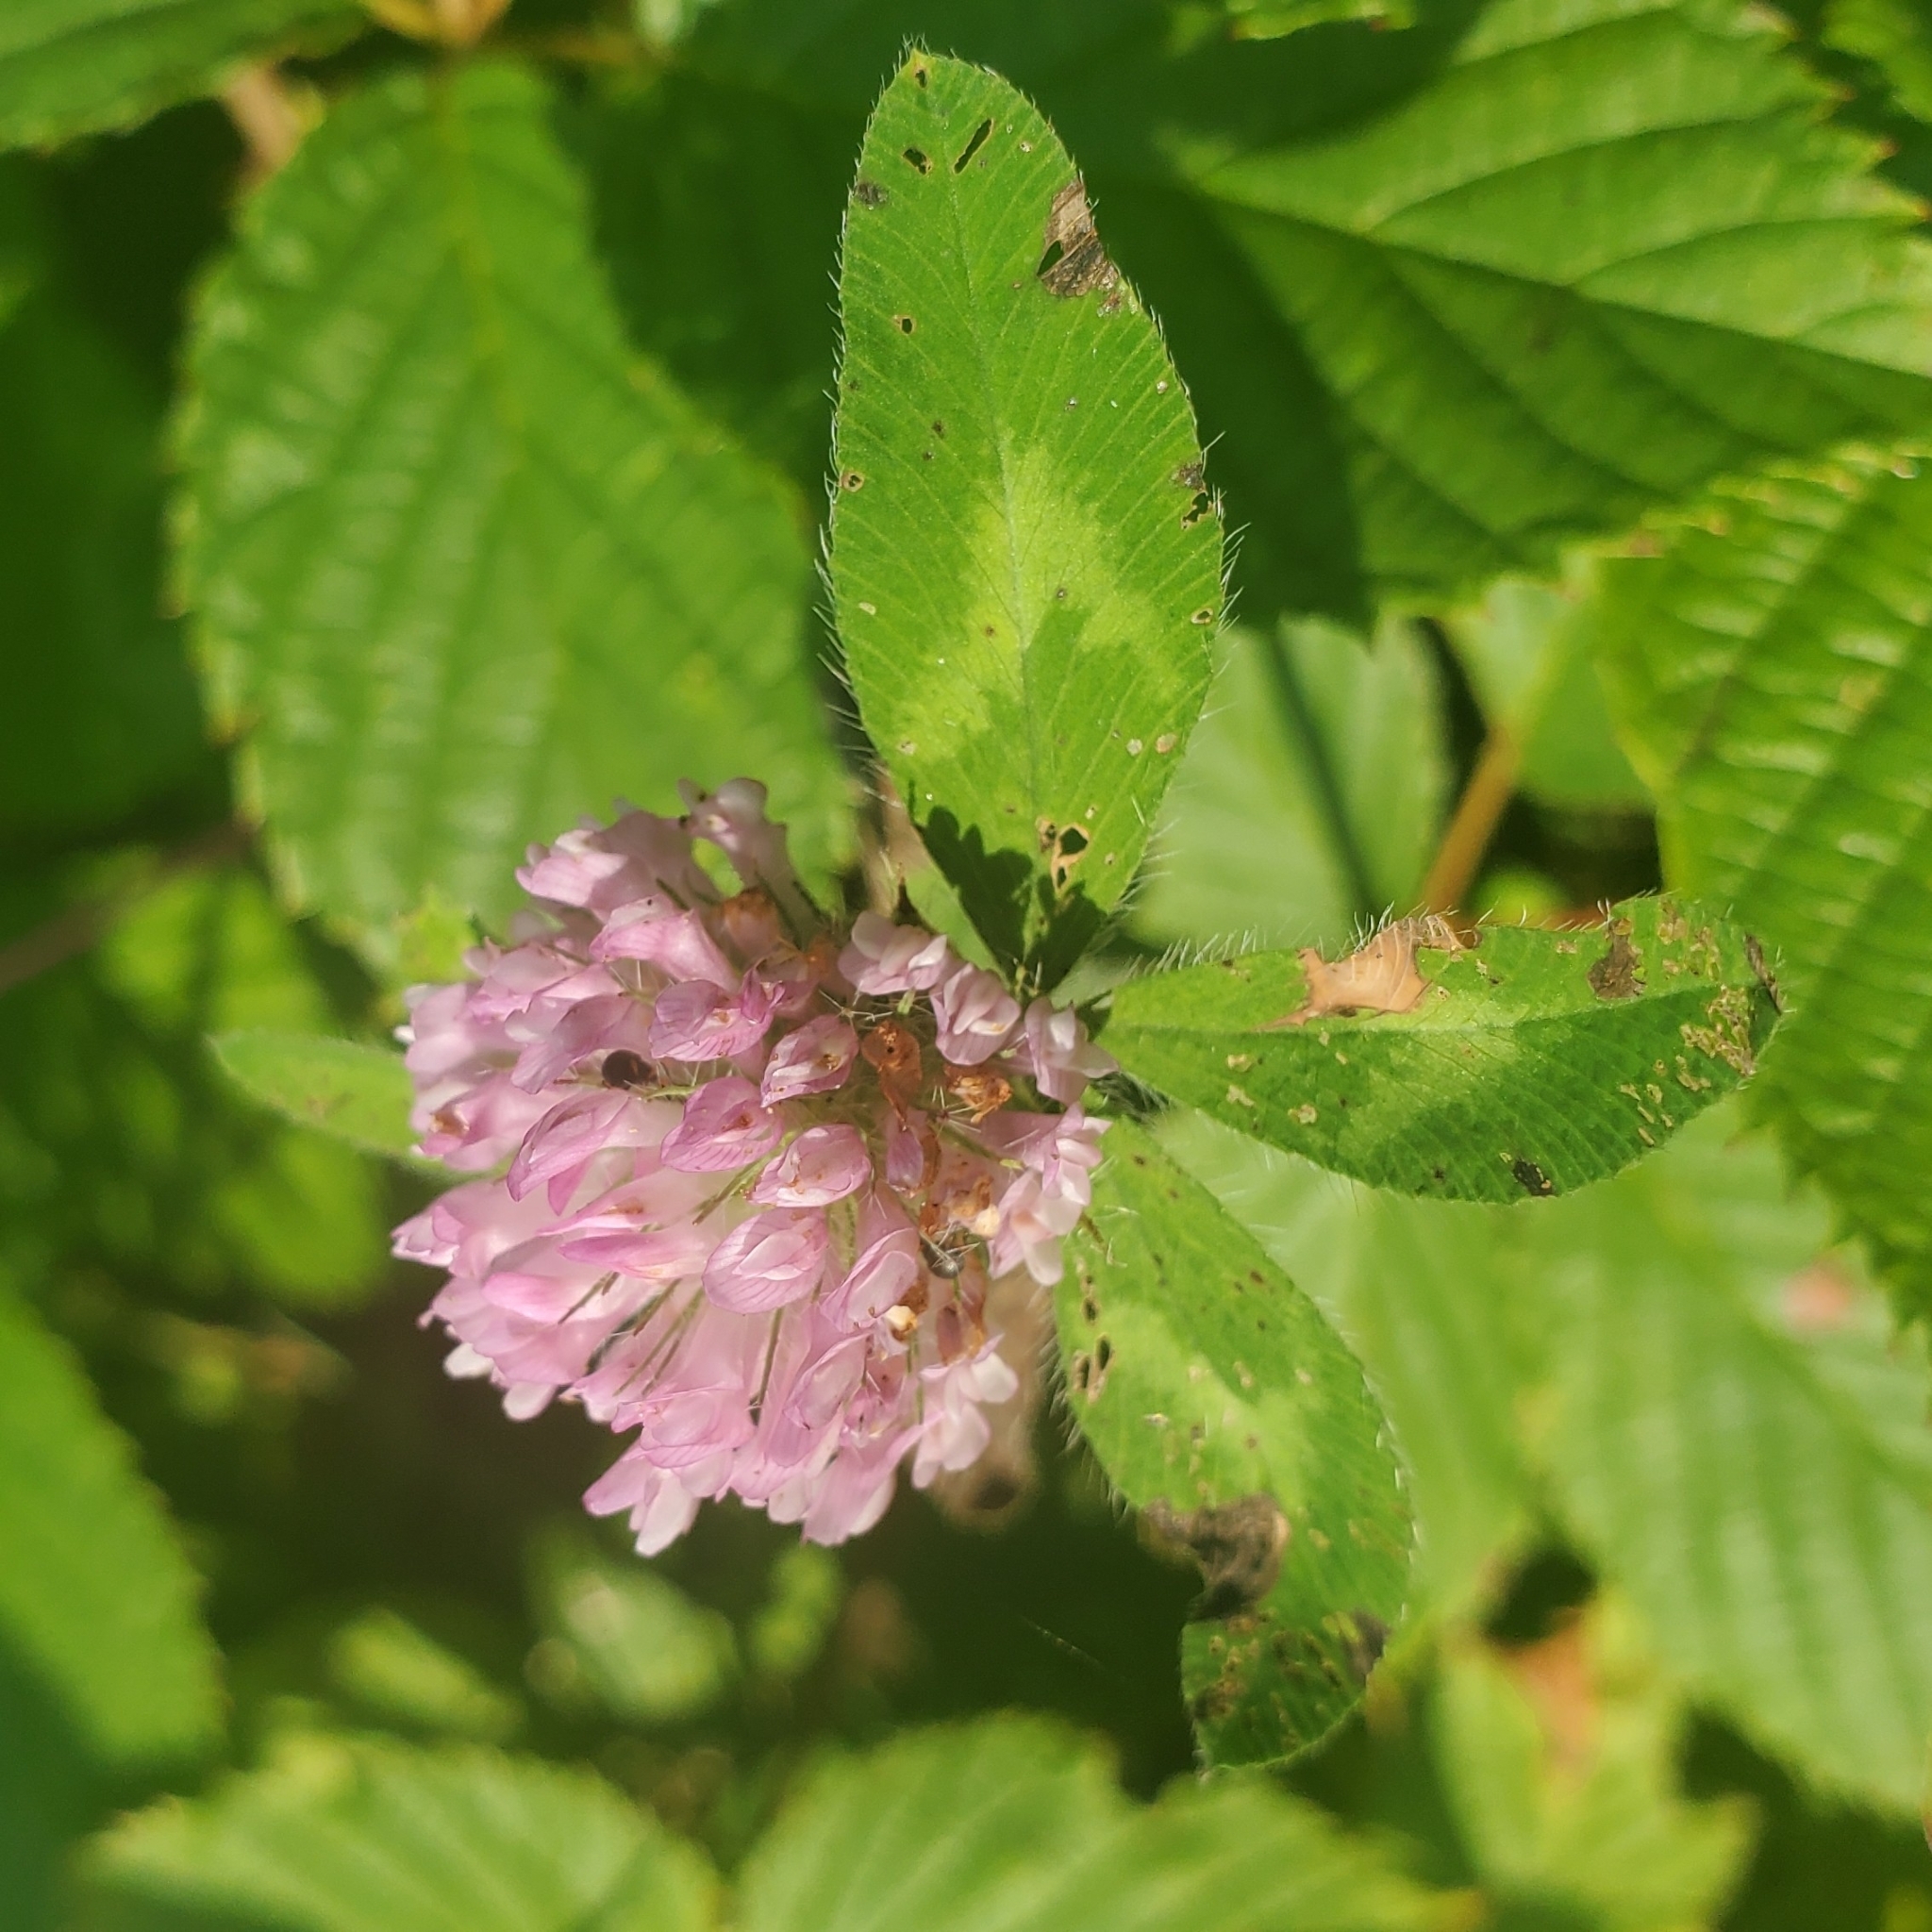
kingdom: Plantae
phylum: Tracheophyta
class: Magnoliopsida
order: Fabales
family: Fabaceae
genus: Trifolium
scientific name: Trifolium pratense
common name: Red clover
